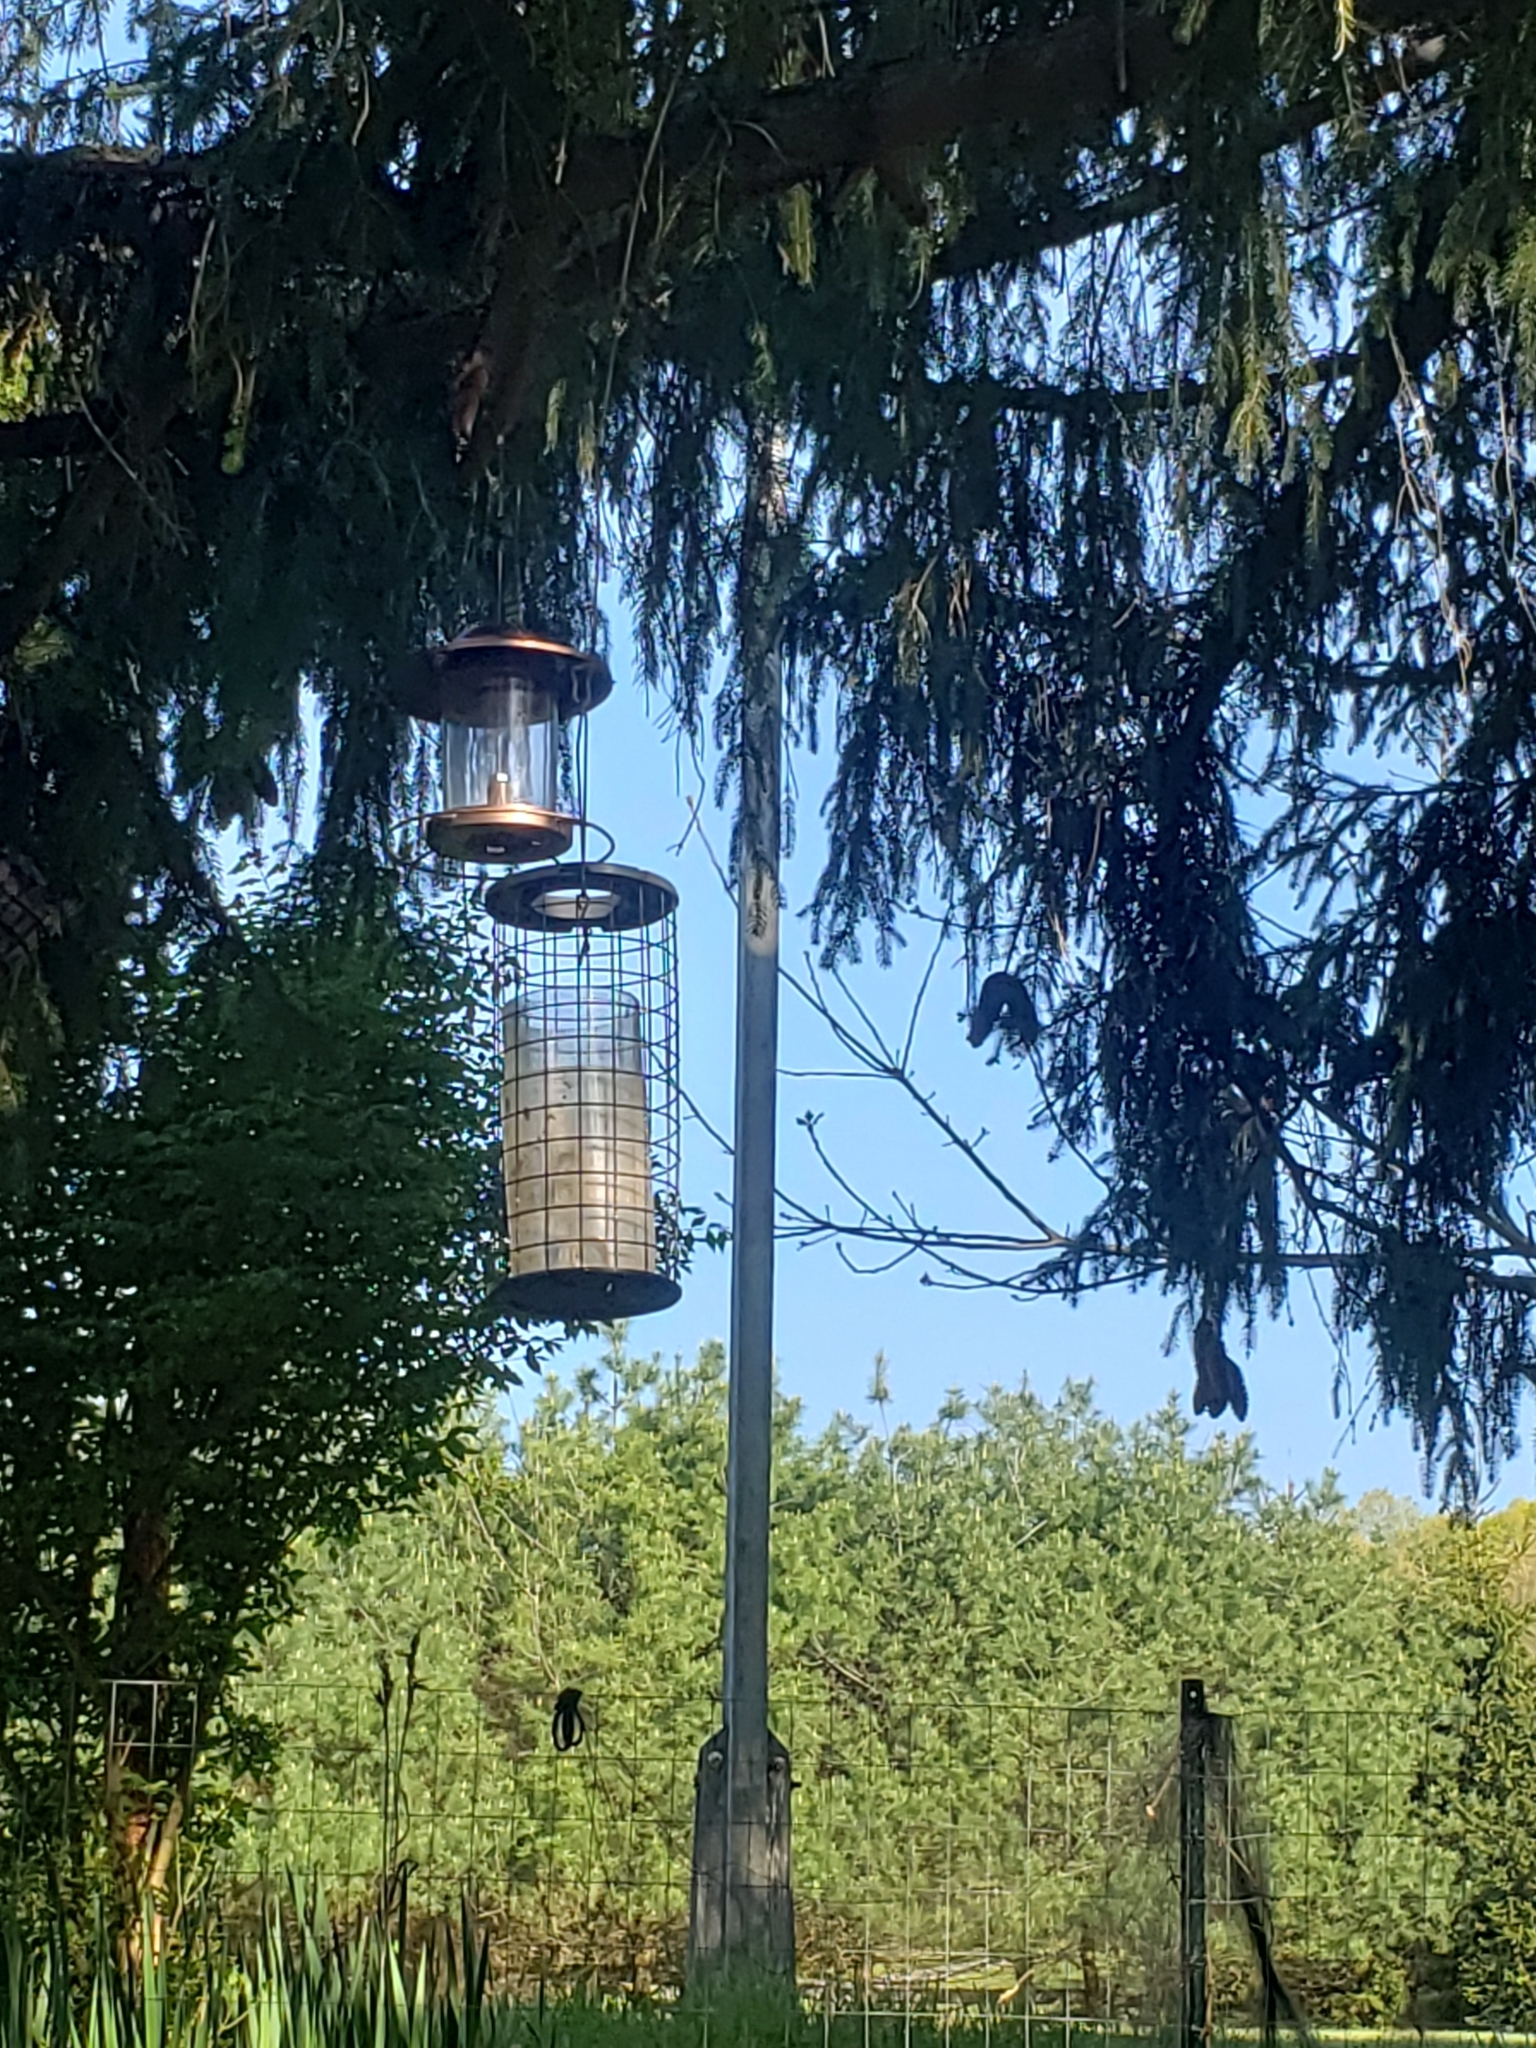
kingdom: Animalia
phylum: Chordata
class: Aves
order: Passeriformes
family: Passeridae
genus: Passer
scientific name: Passer domesticus
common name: House sparrow
